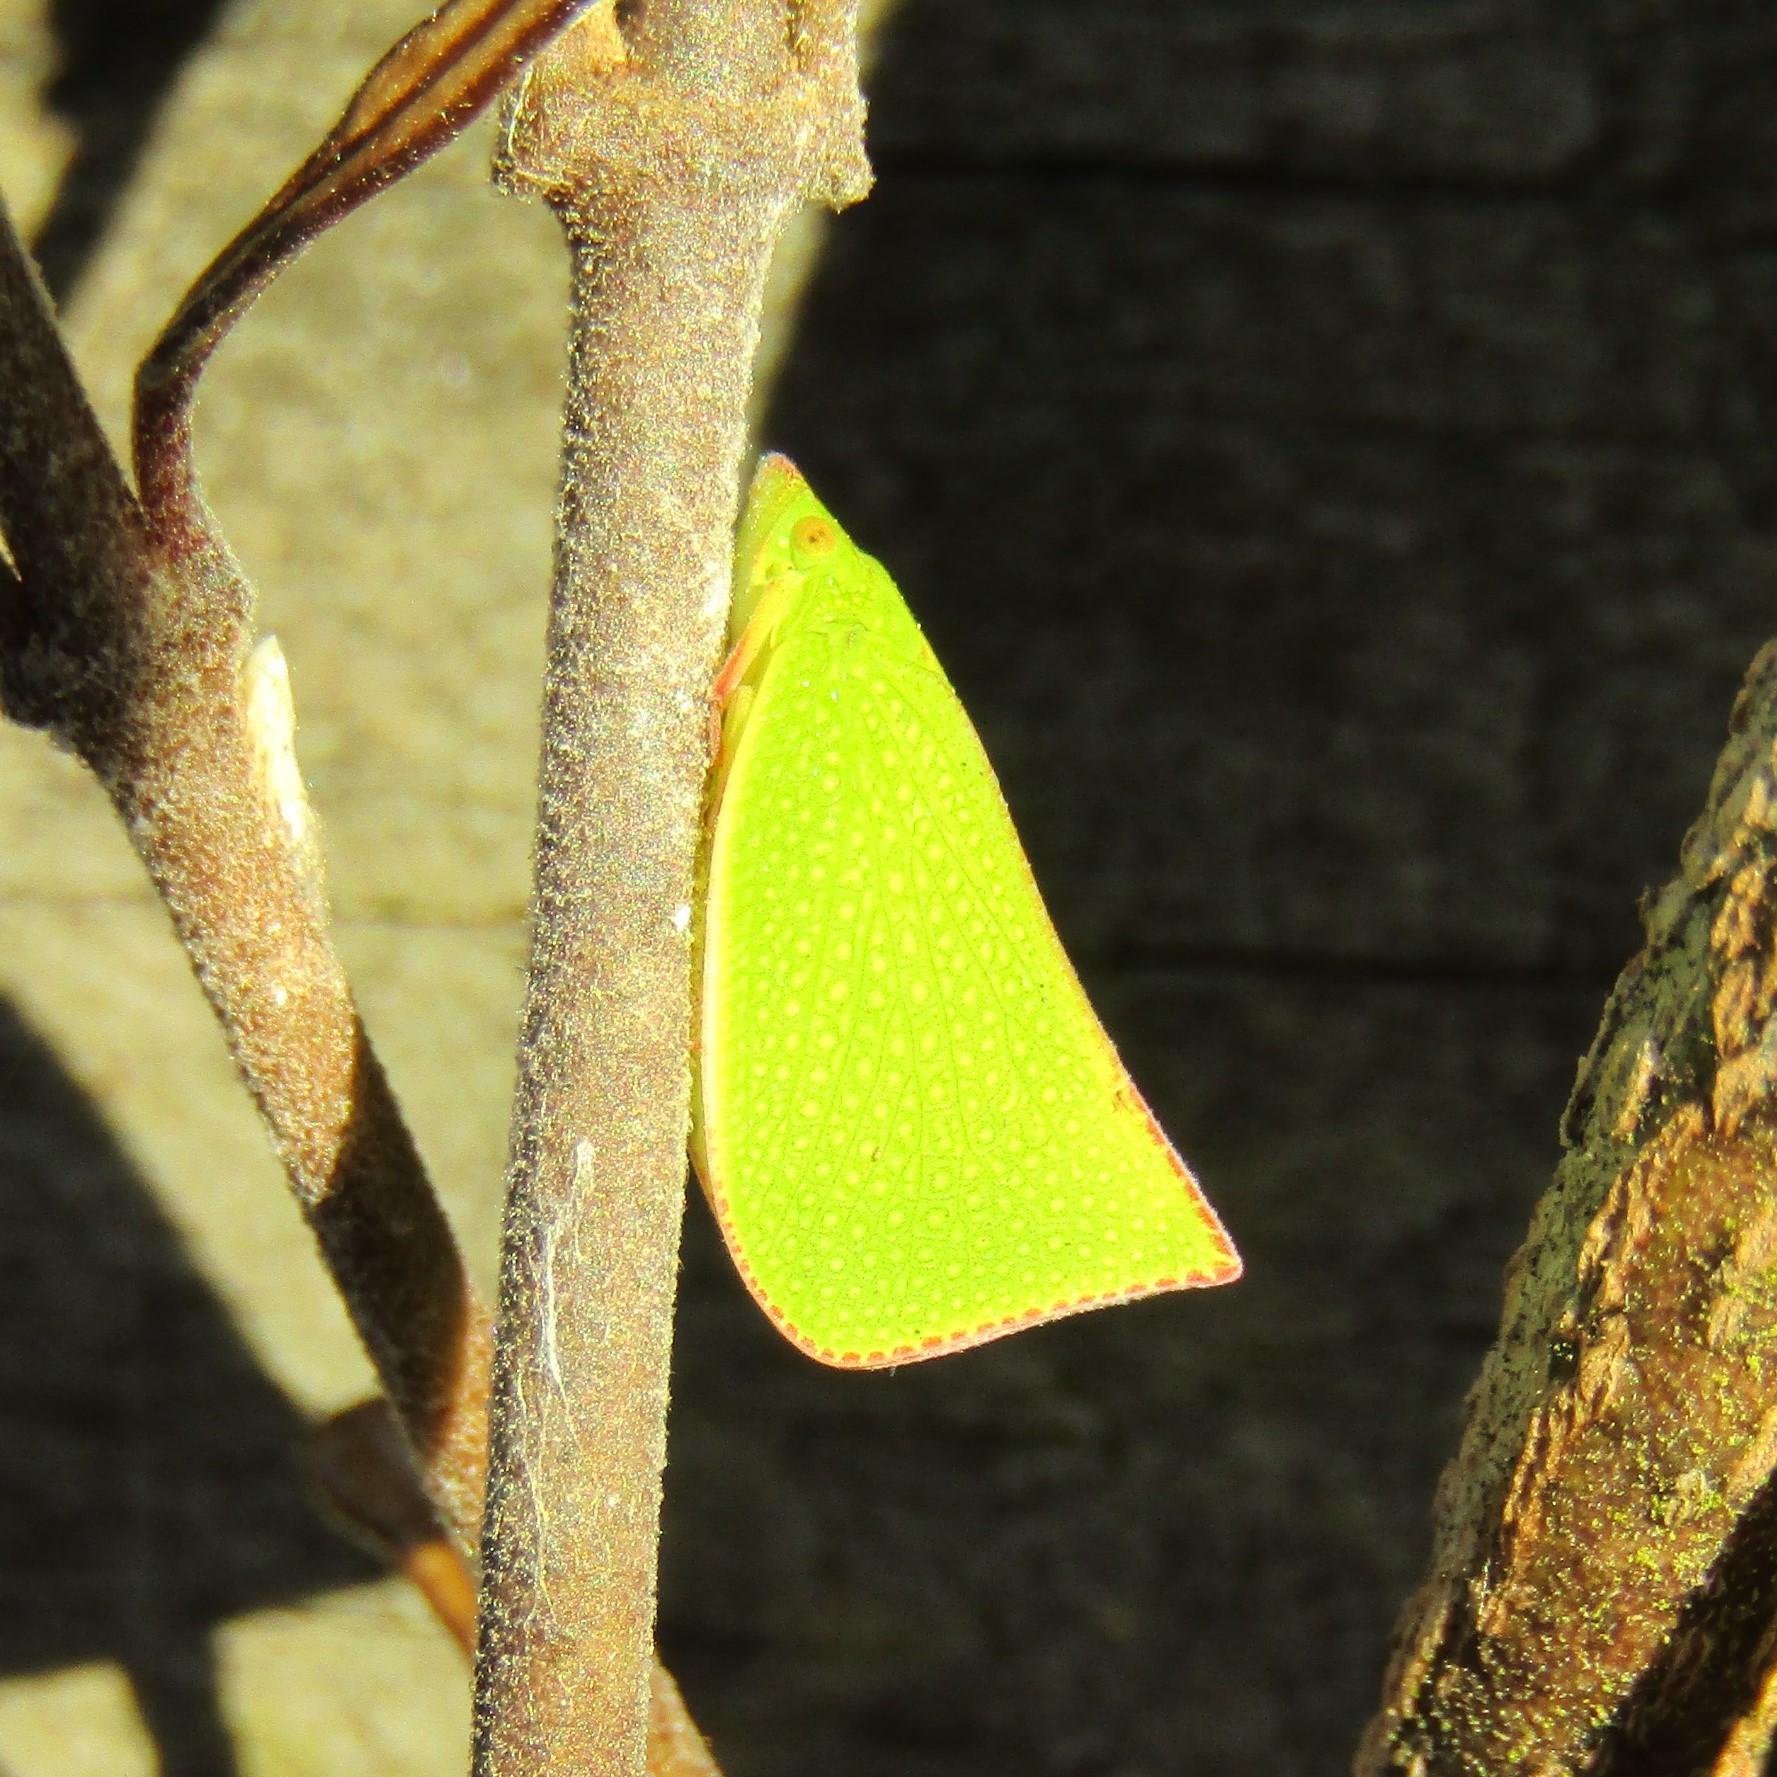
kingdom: Animalia
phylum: Arthropoda
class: Insecta
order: Hemiptera
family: Flatidae
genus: Siphanta
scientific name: Siphanta acuta
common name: Torpedo bug
